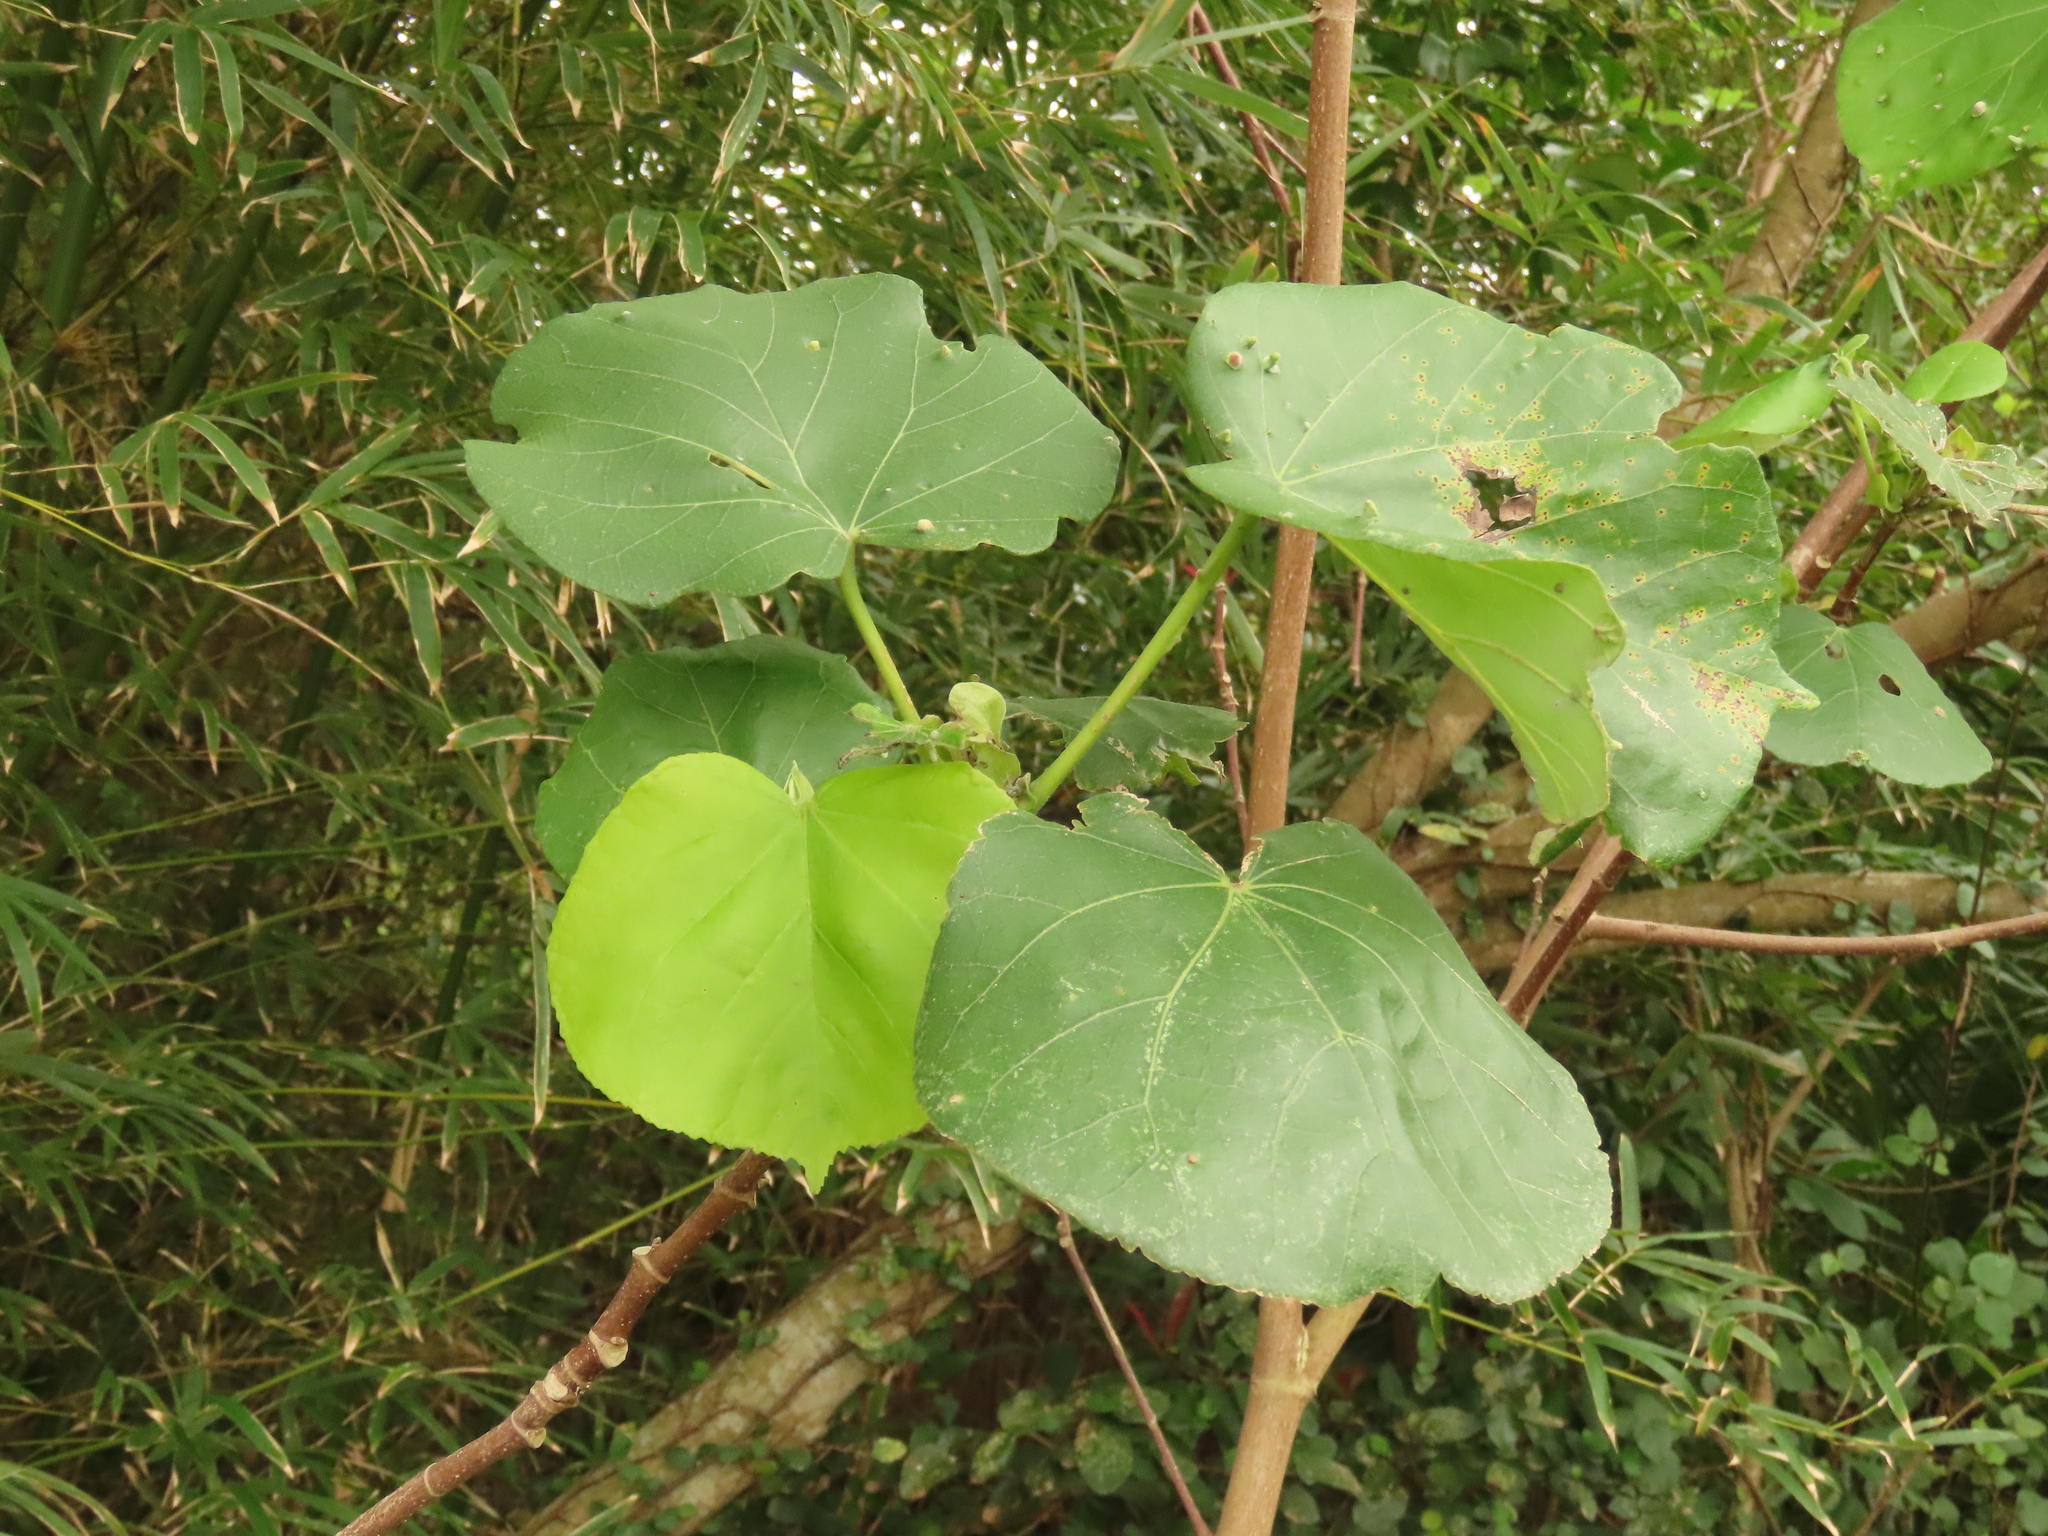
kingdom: Plantae
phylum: Tracheophyta
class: Magnoliopsida
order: Malvales
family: Malvaceae
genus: Talipariti
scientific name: Talipariti tiliaceum
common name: Sea hibiscus
